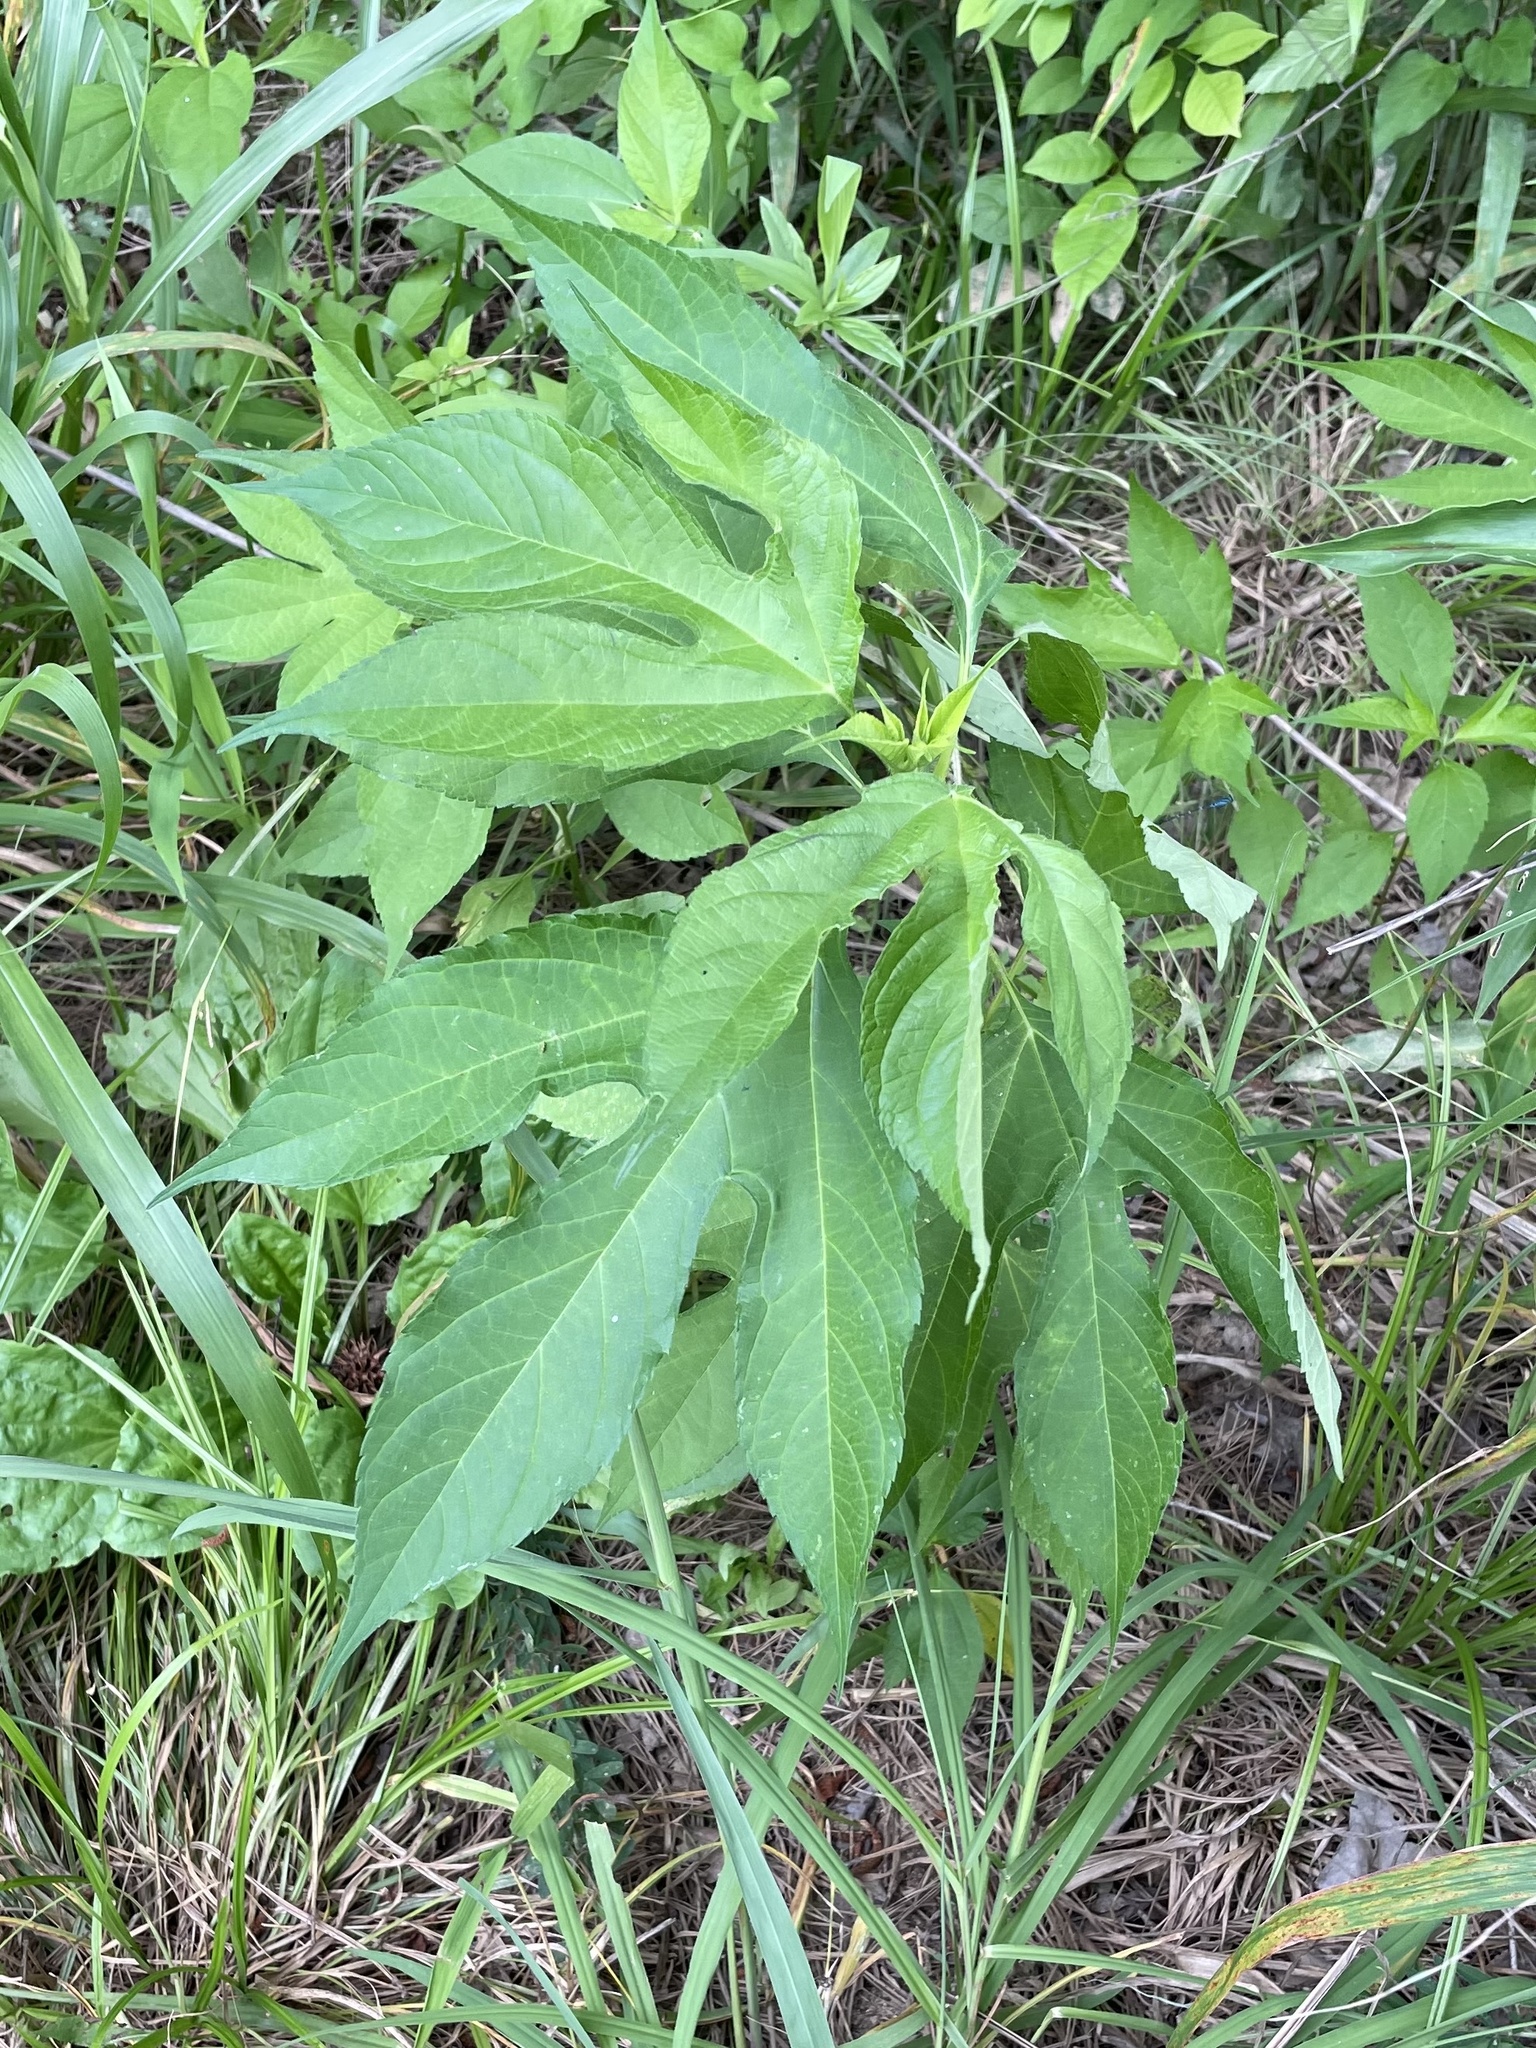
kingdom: Plantae
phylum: Tracheophyta
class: Magnoliopsida
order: Asterales
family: Asteraceae
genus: Ambrosia
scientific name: Ambrosia trifida
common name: Giant ragweed
